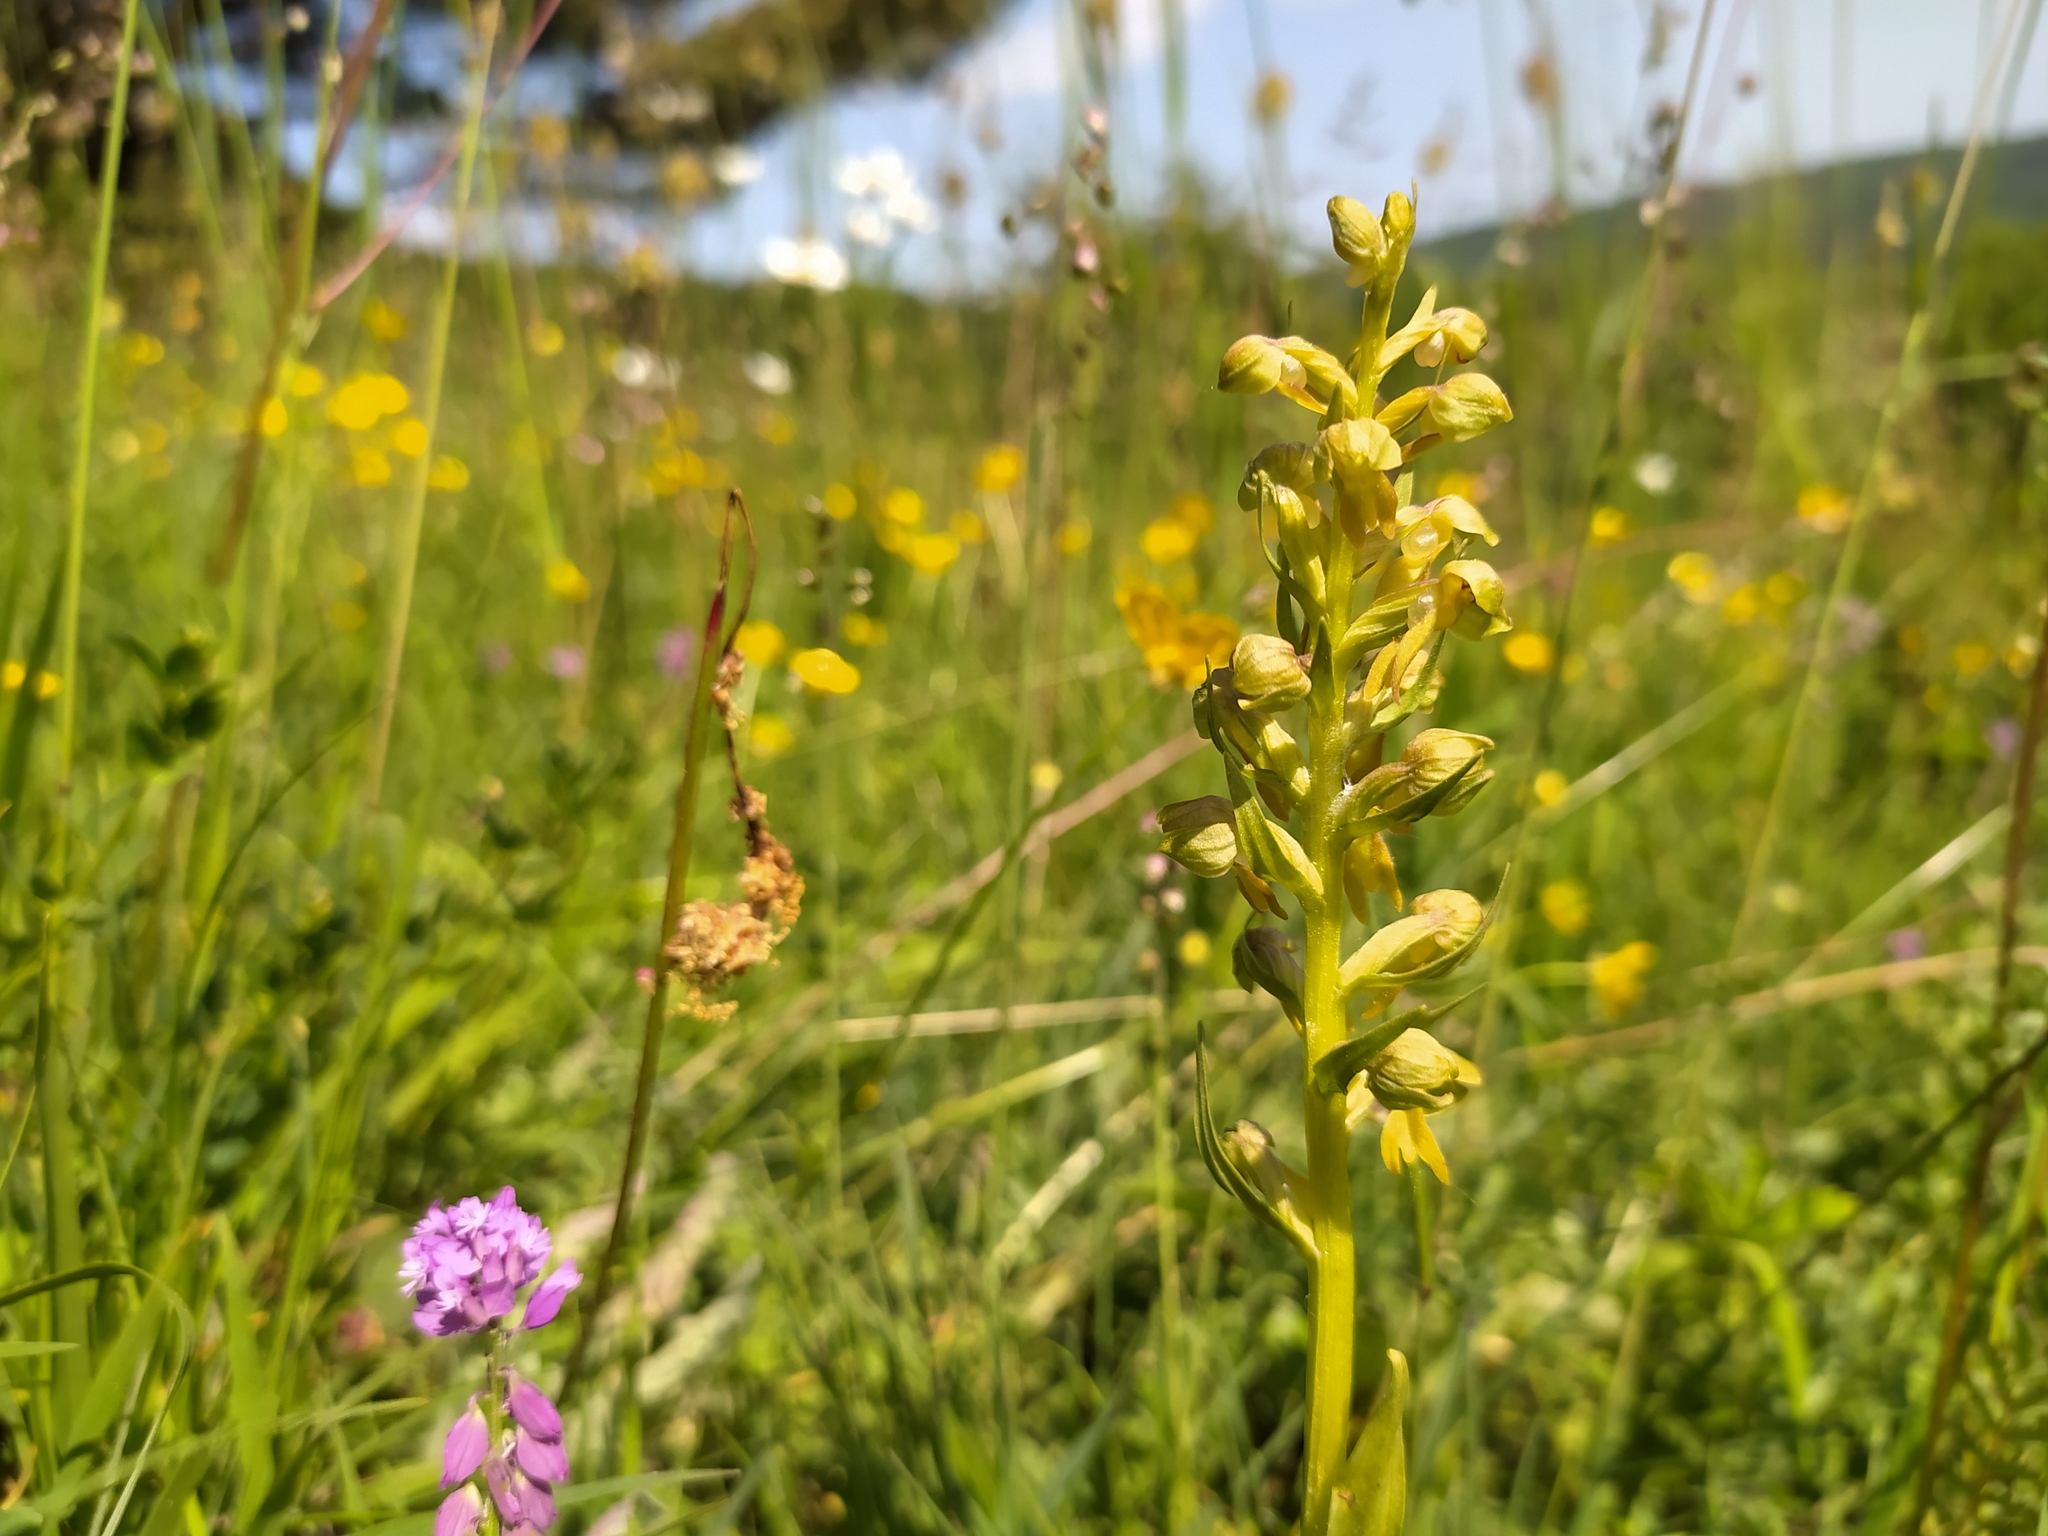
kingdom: Plantae
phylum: Tracheophyta
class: Liliopsida
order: Asparagales
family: Orchidaceae
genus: Dactylorhiza
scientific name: Dactylorhiza viridis
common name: Longbract frog orchid
